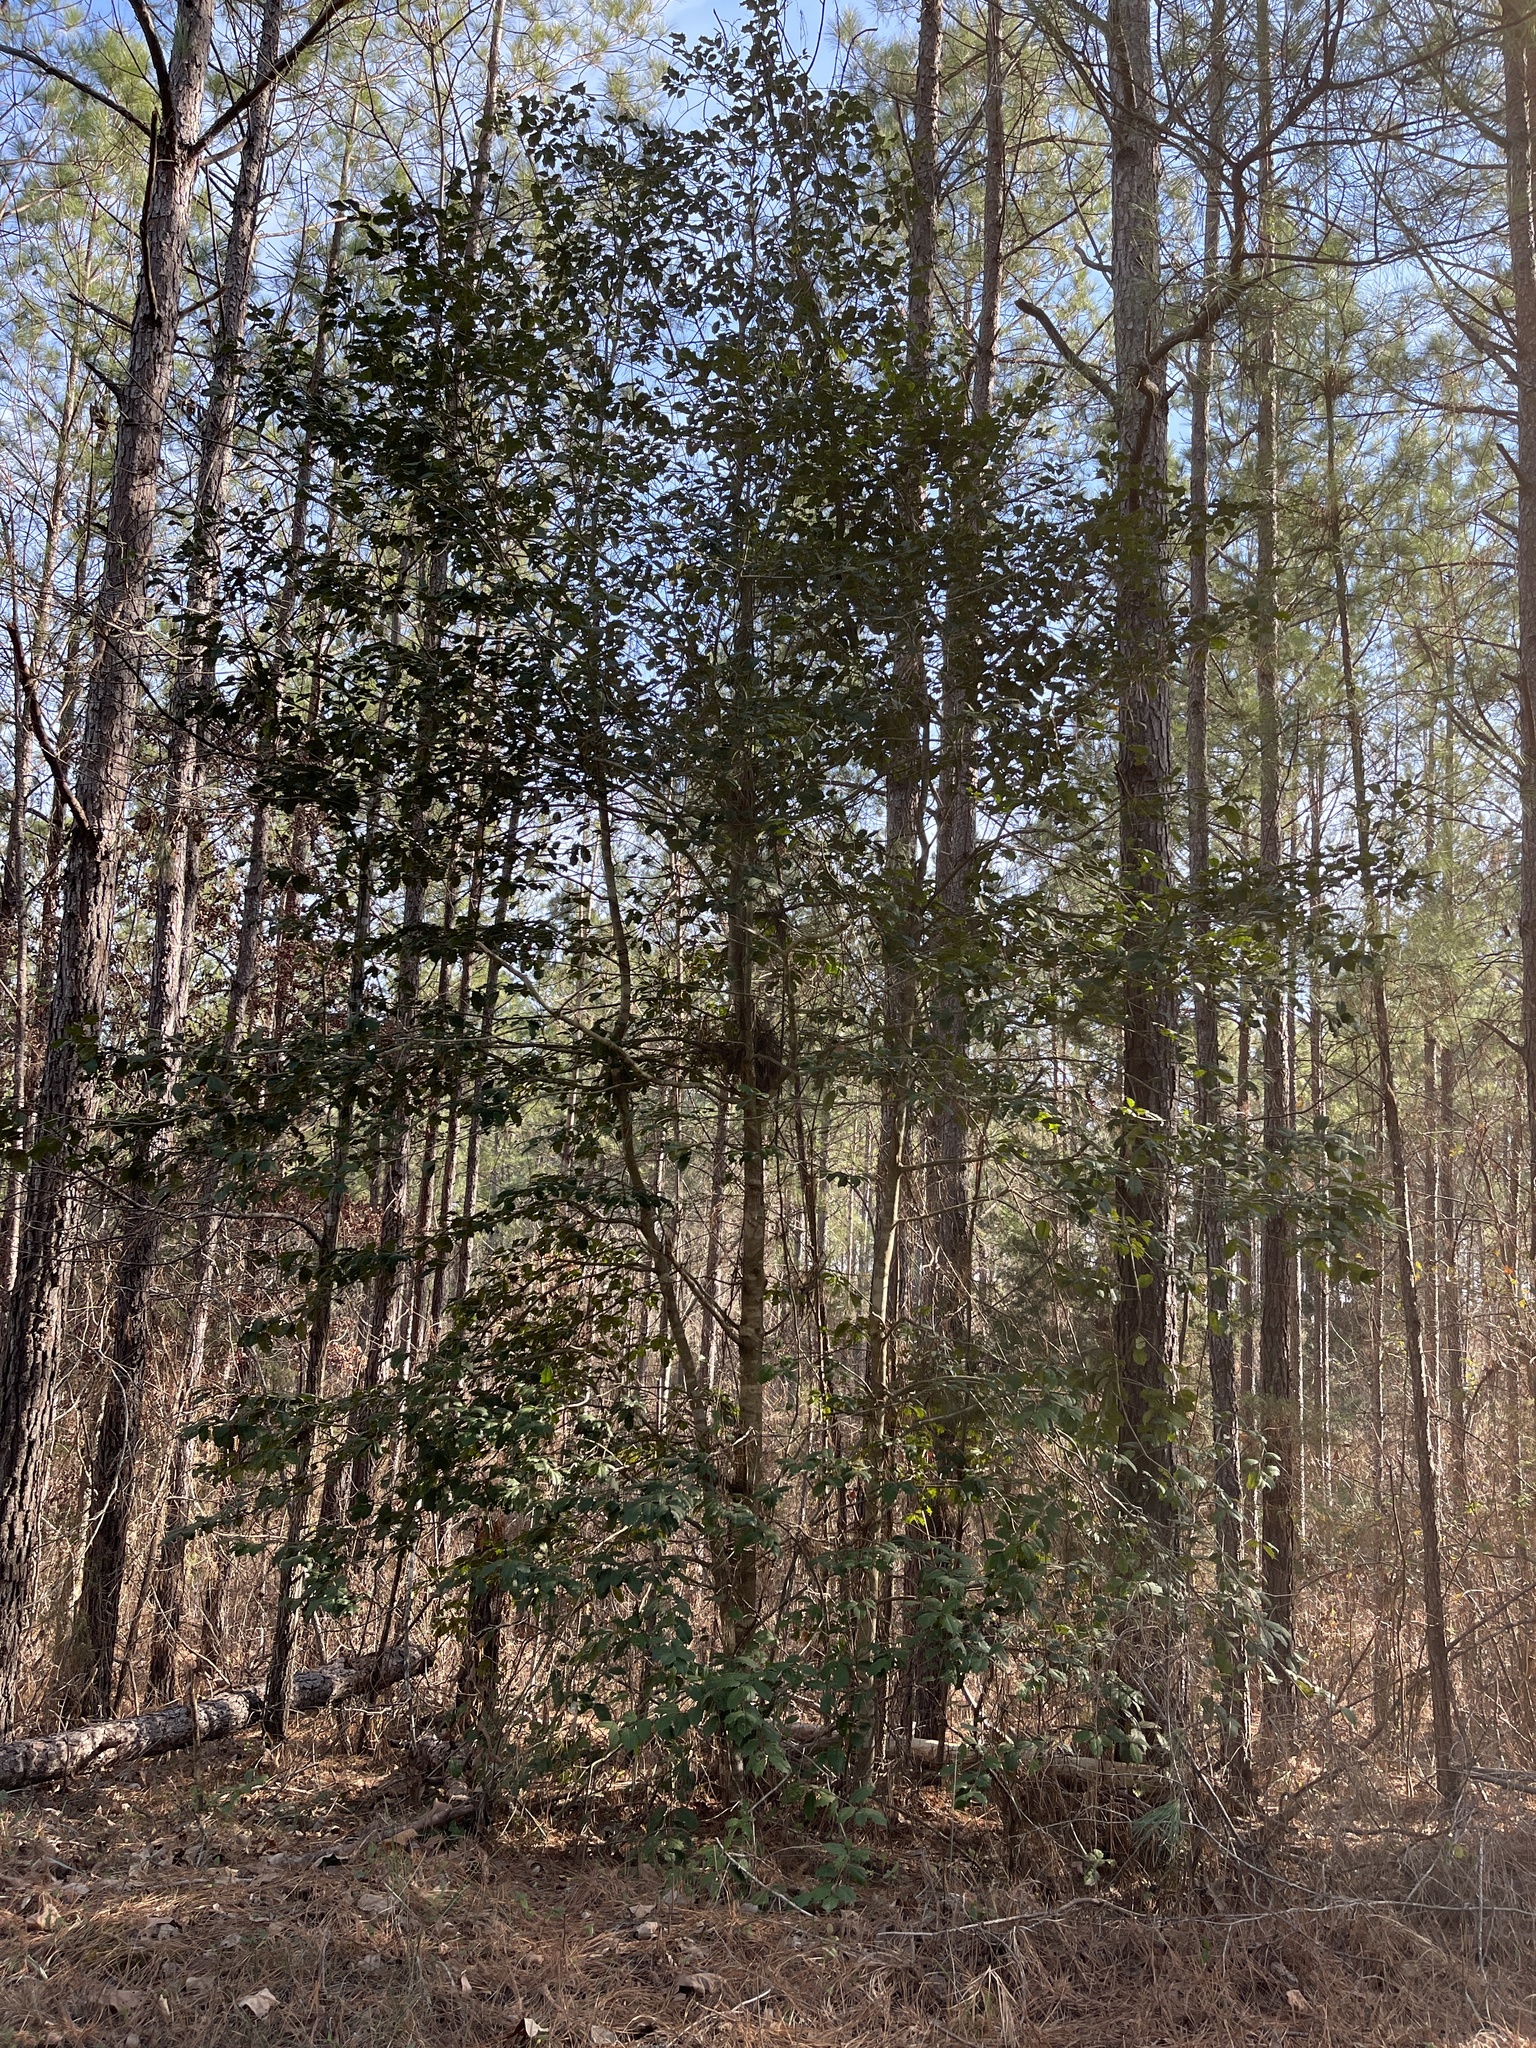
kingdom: Plantae
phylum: Tracheophyta
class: Magnoliopsida
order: Aquifoliales
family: Aquifoliaceae
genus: Ilex
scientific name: Ilex opaca
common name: American holly
